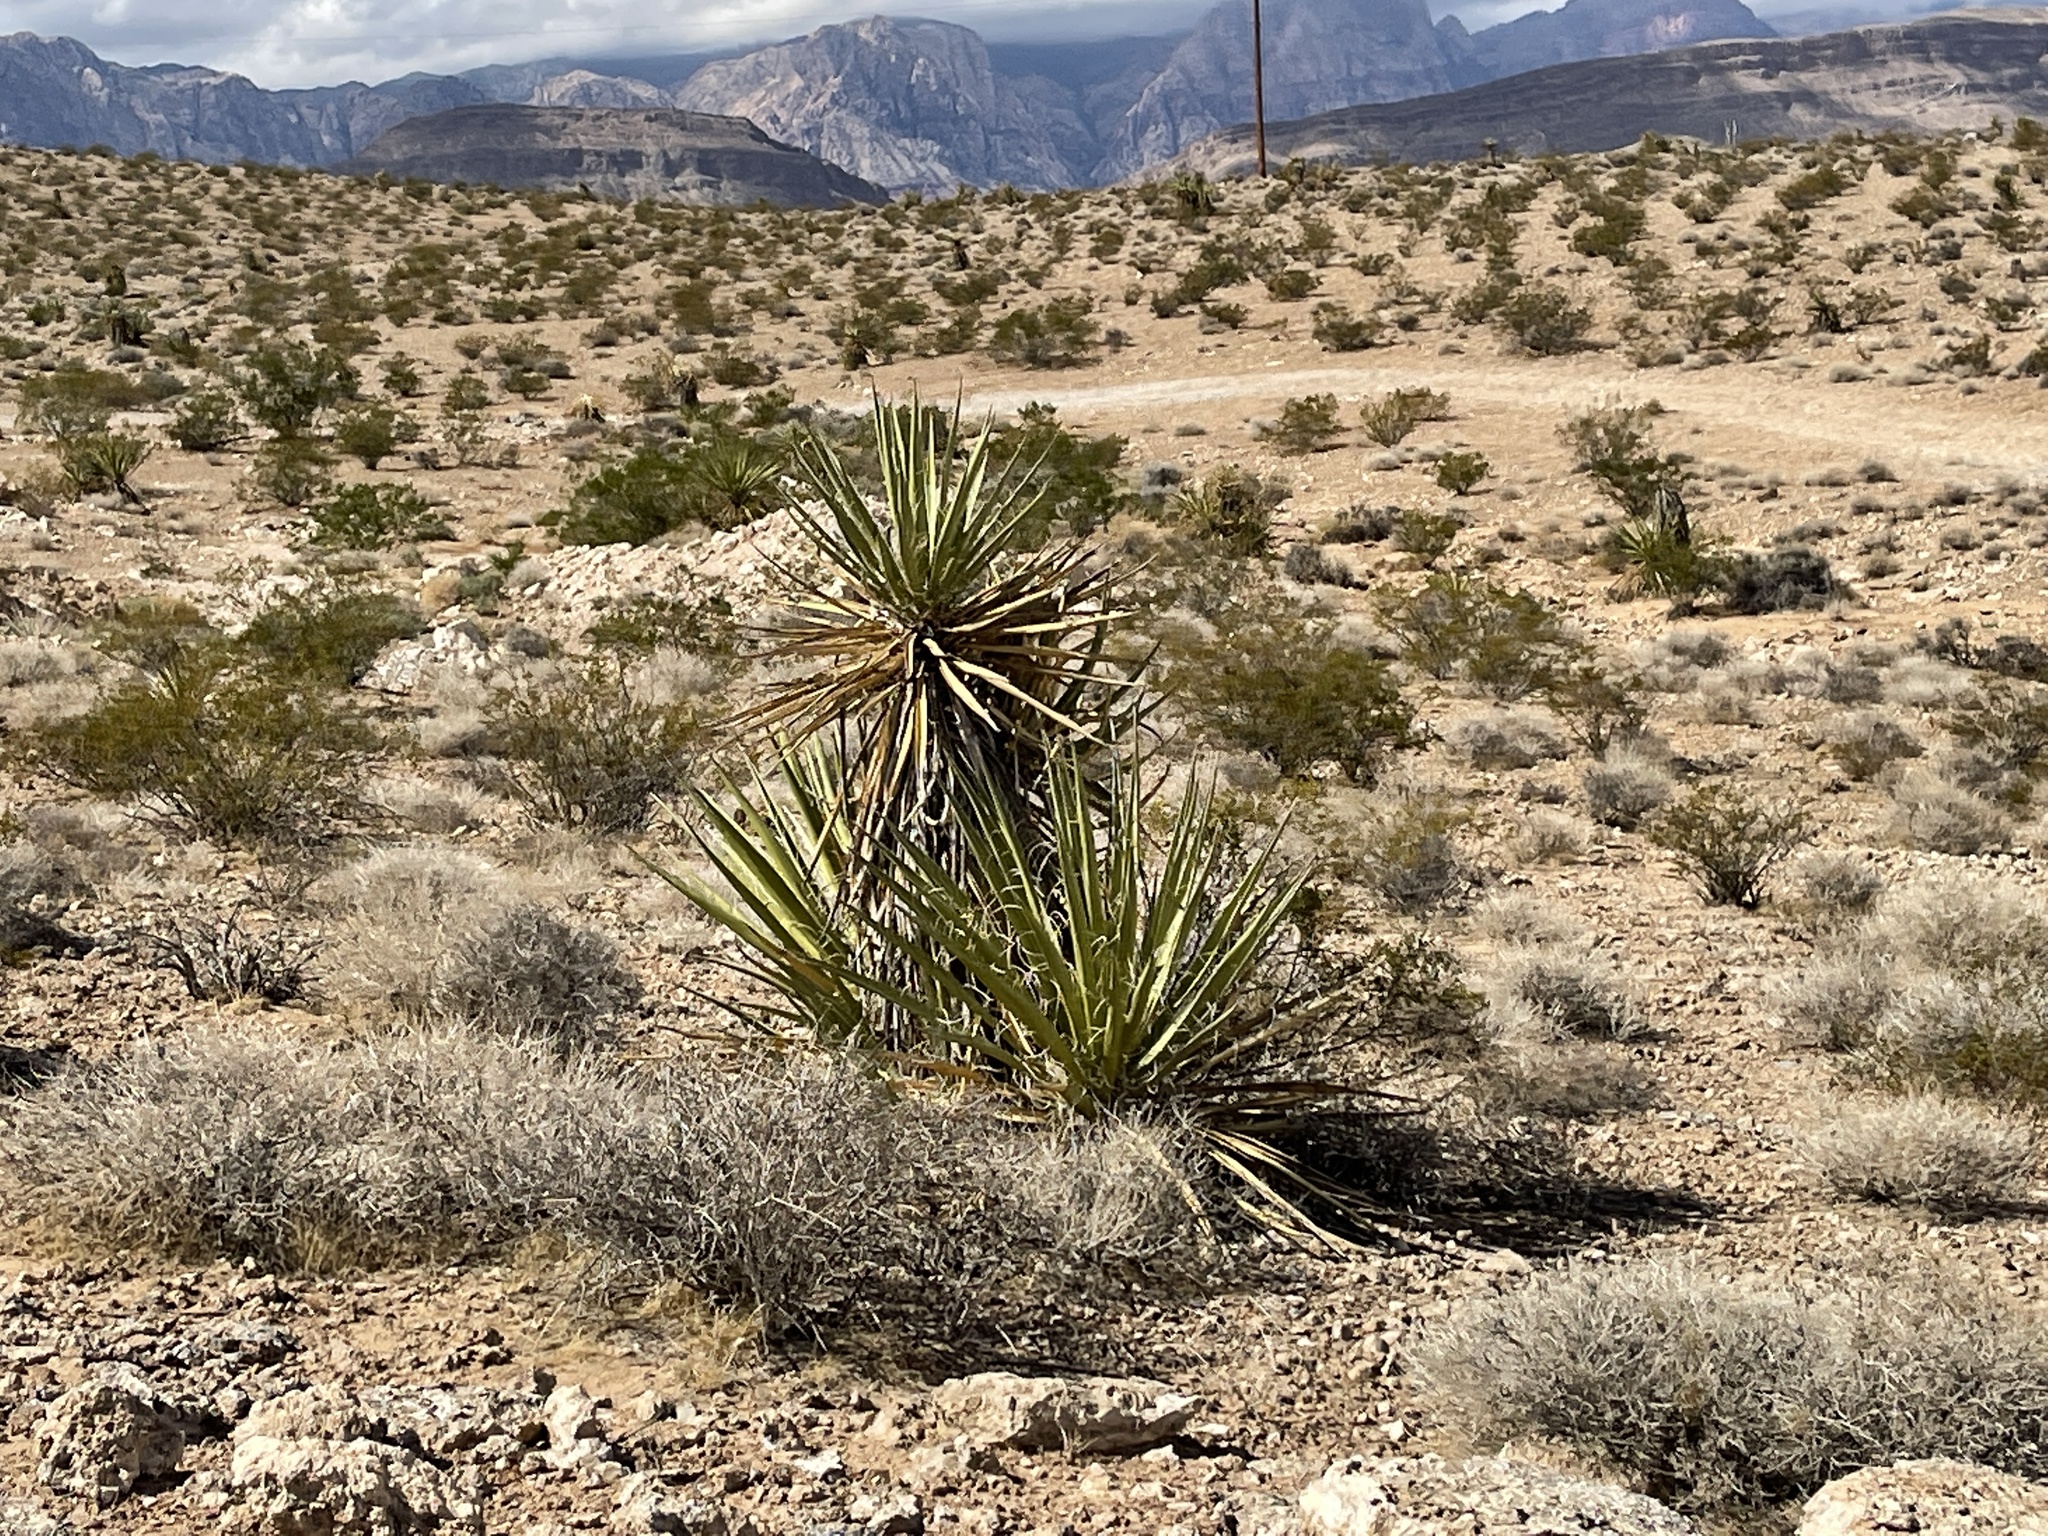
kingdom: Plantae
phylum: Tracheophyta
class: Liliopsida
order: Asparagales
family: Asparagaceae
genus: Yucca
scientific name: Yucca schidigera
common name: Mojave yucca
